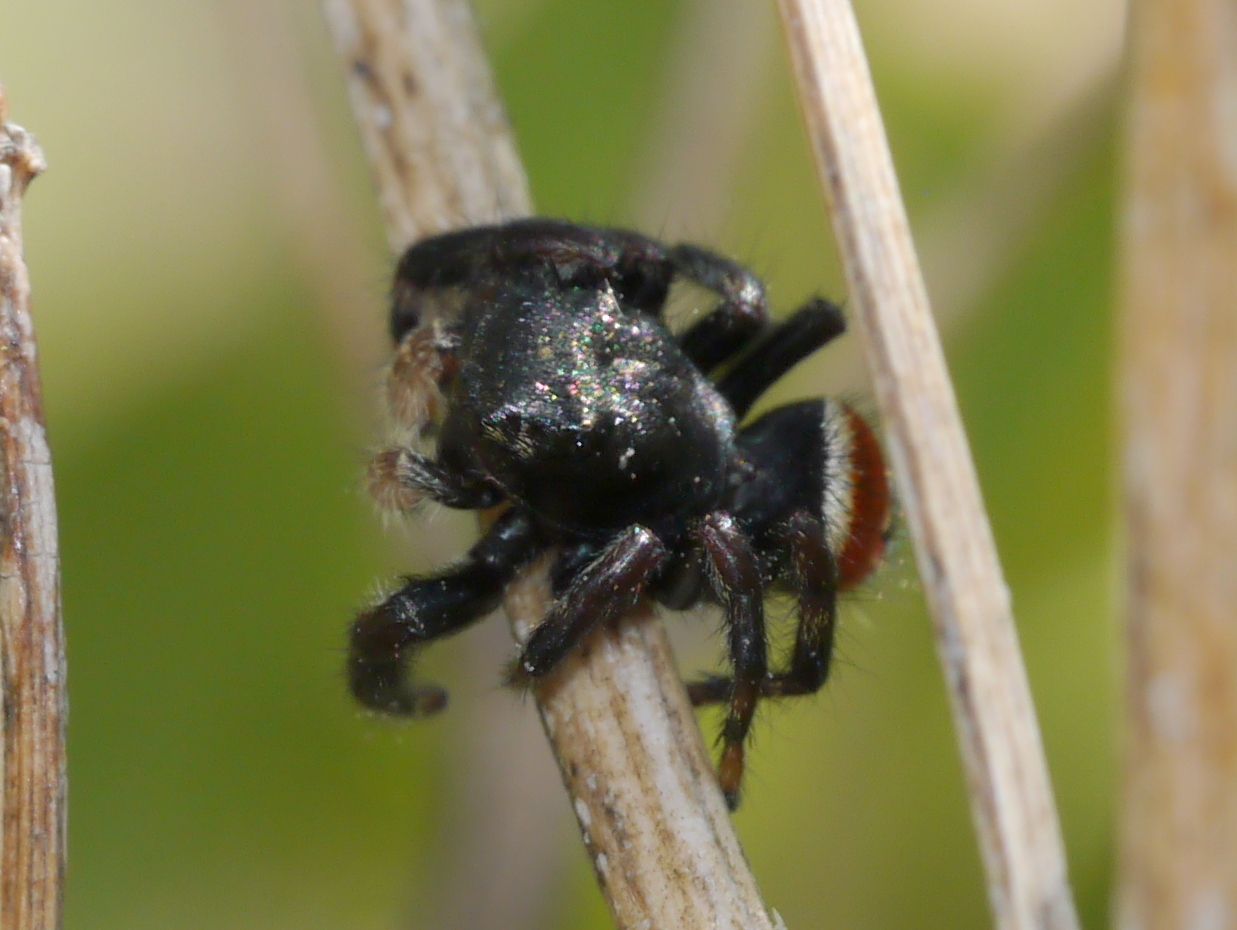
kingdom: Animalia
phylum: Arthropoda
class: Arachnida
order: Araneae
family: Salticidae
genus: Phidippus
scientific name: Phidippus carneus
